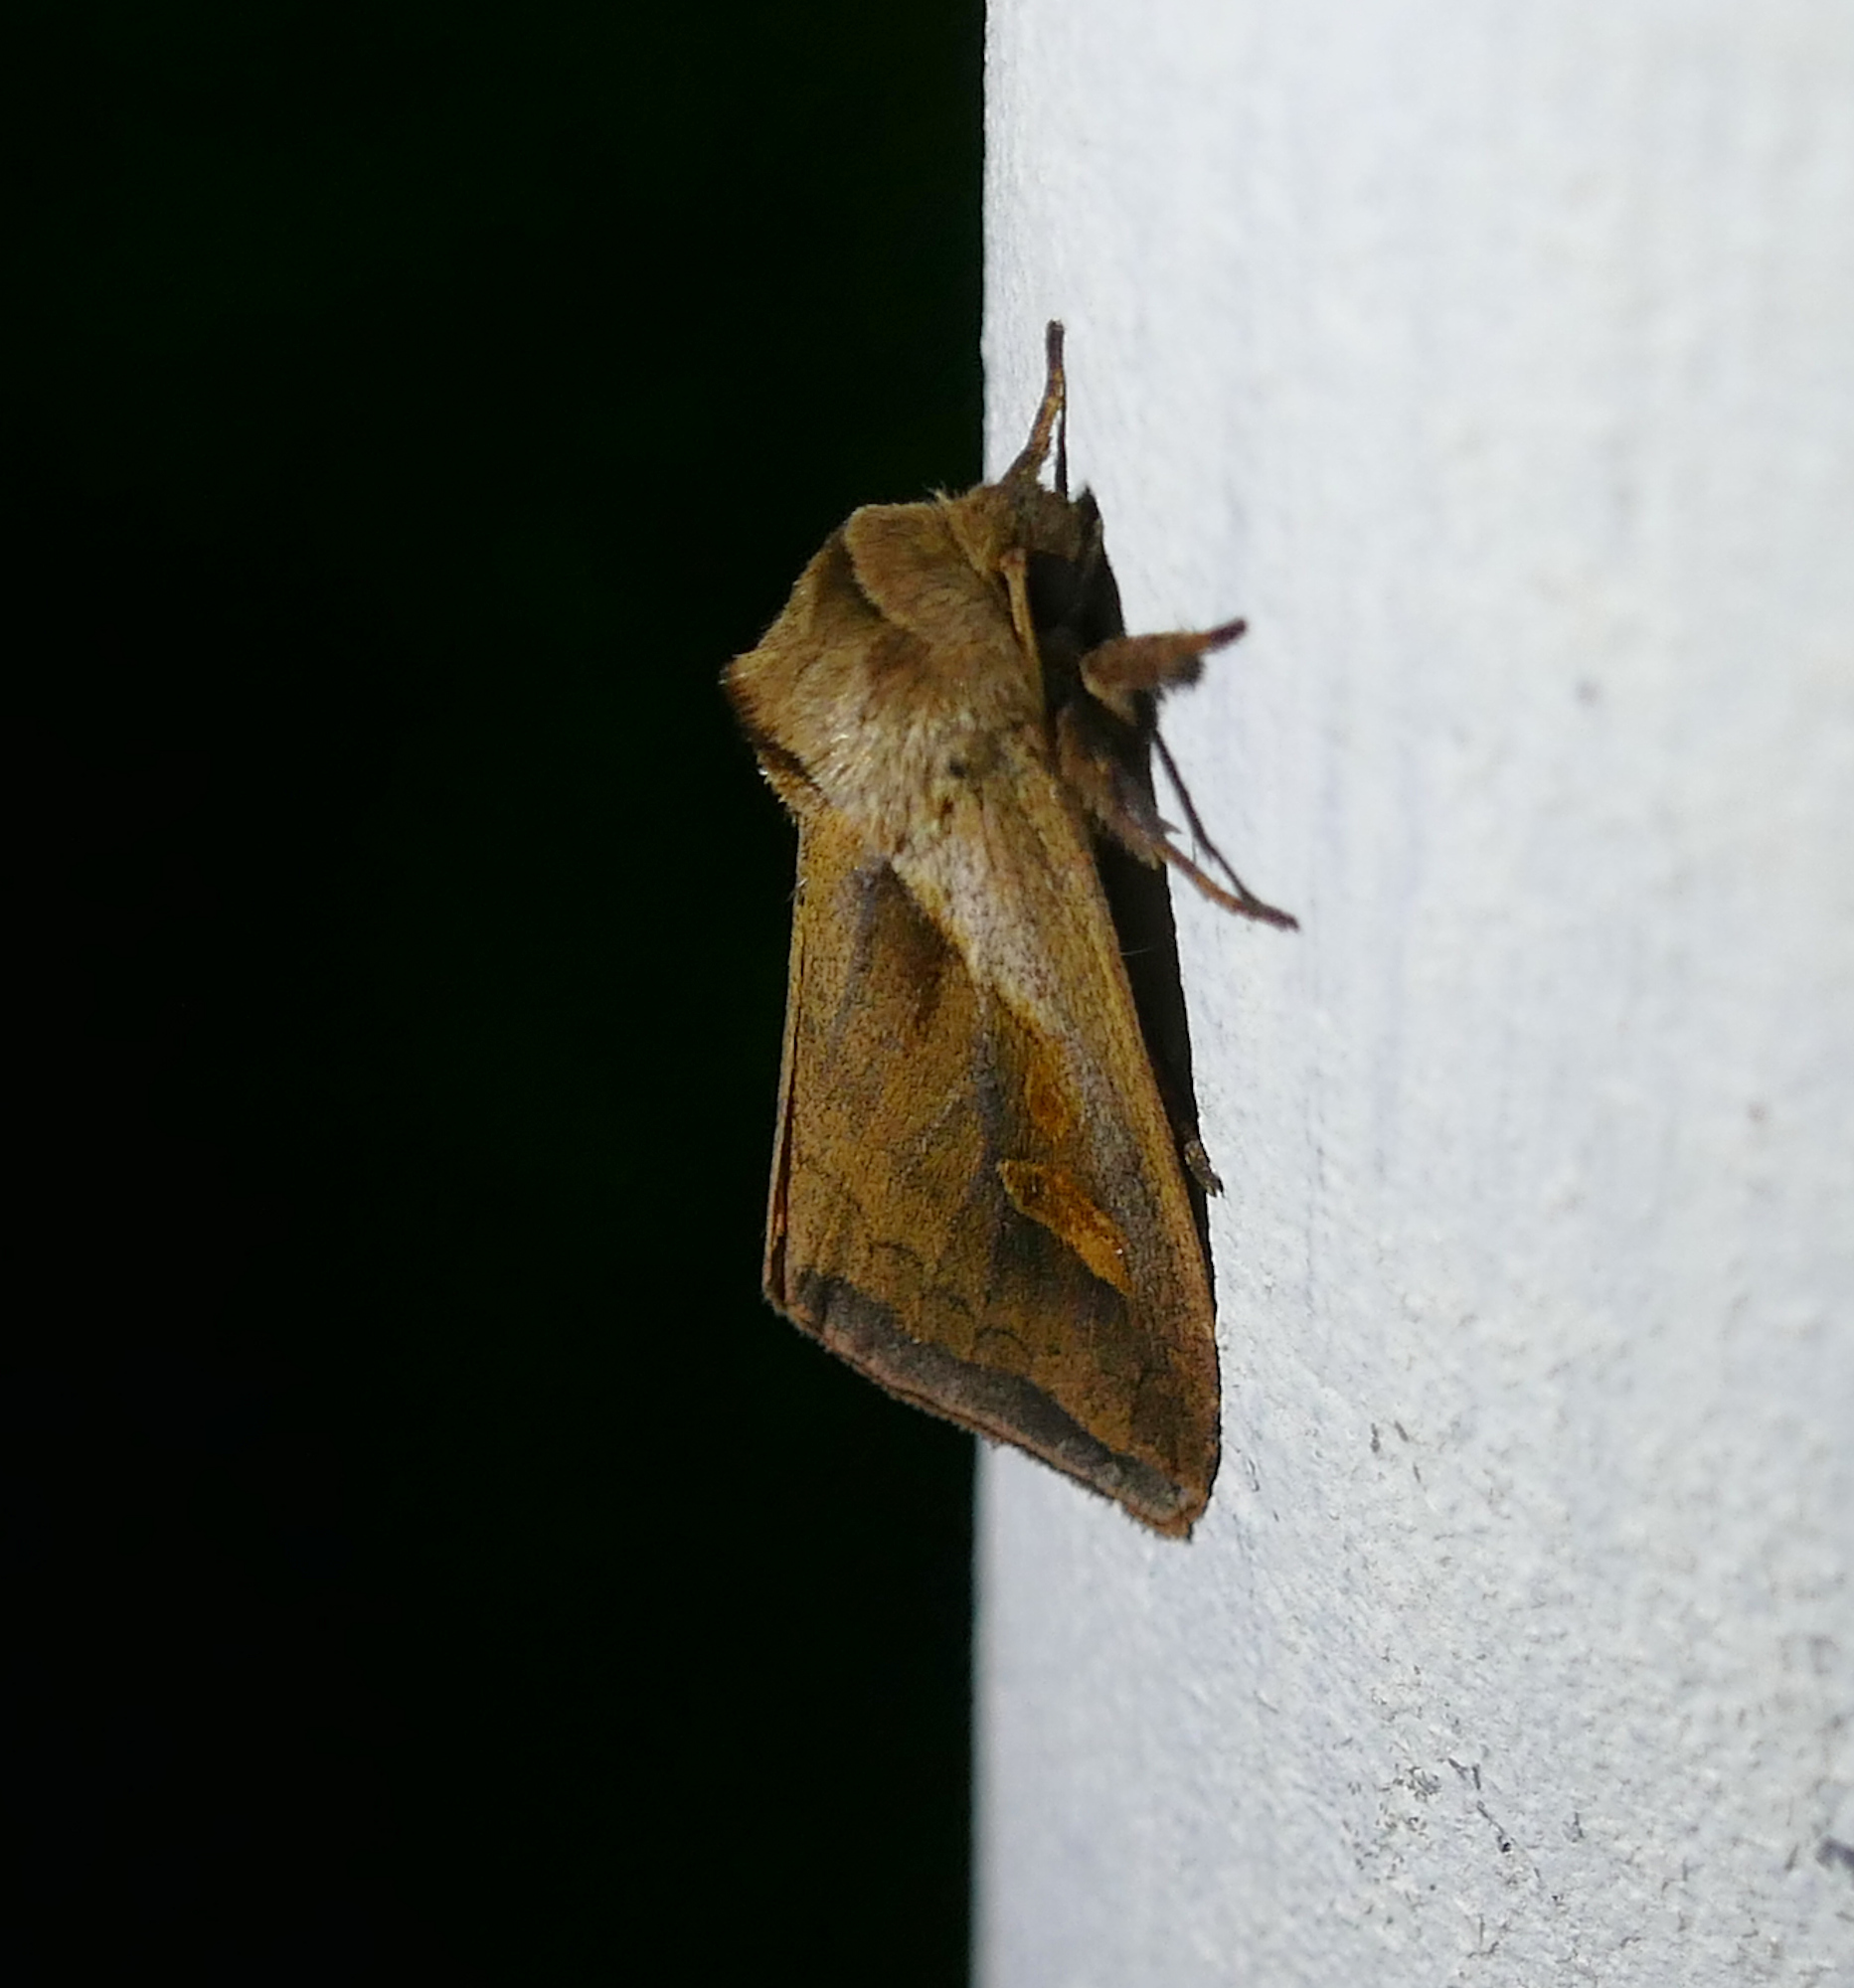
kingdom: Animalia
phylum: Arthropoda
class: Insecta
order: Lepidoptera
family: Noctuidae
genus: Bellura
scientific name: Bellura obliqua
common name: Cattail borer moth
